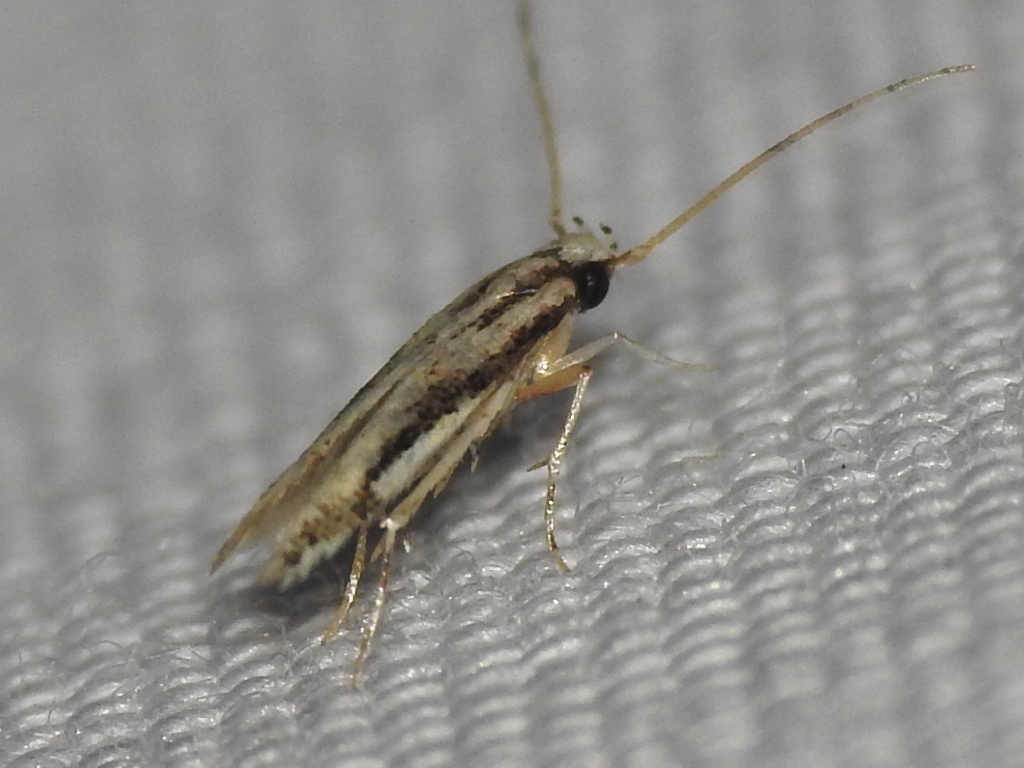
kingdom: Animalia
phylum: Arthropoda
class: Insecta
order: Lepidoptera
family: Cosmopterigidae
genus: Melanocinclis
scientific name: Melanocinclis lineigera
